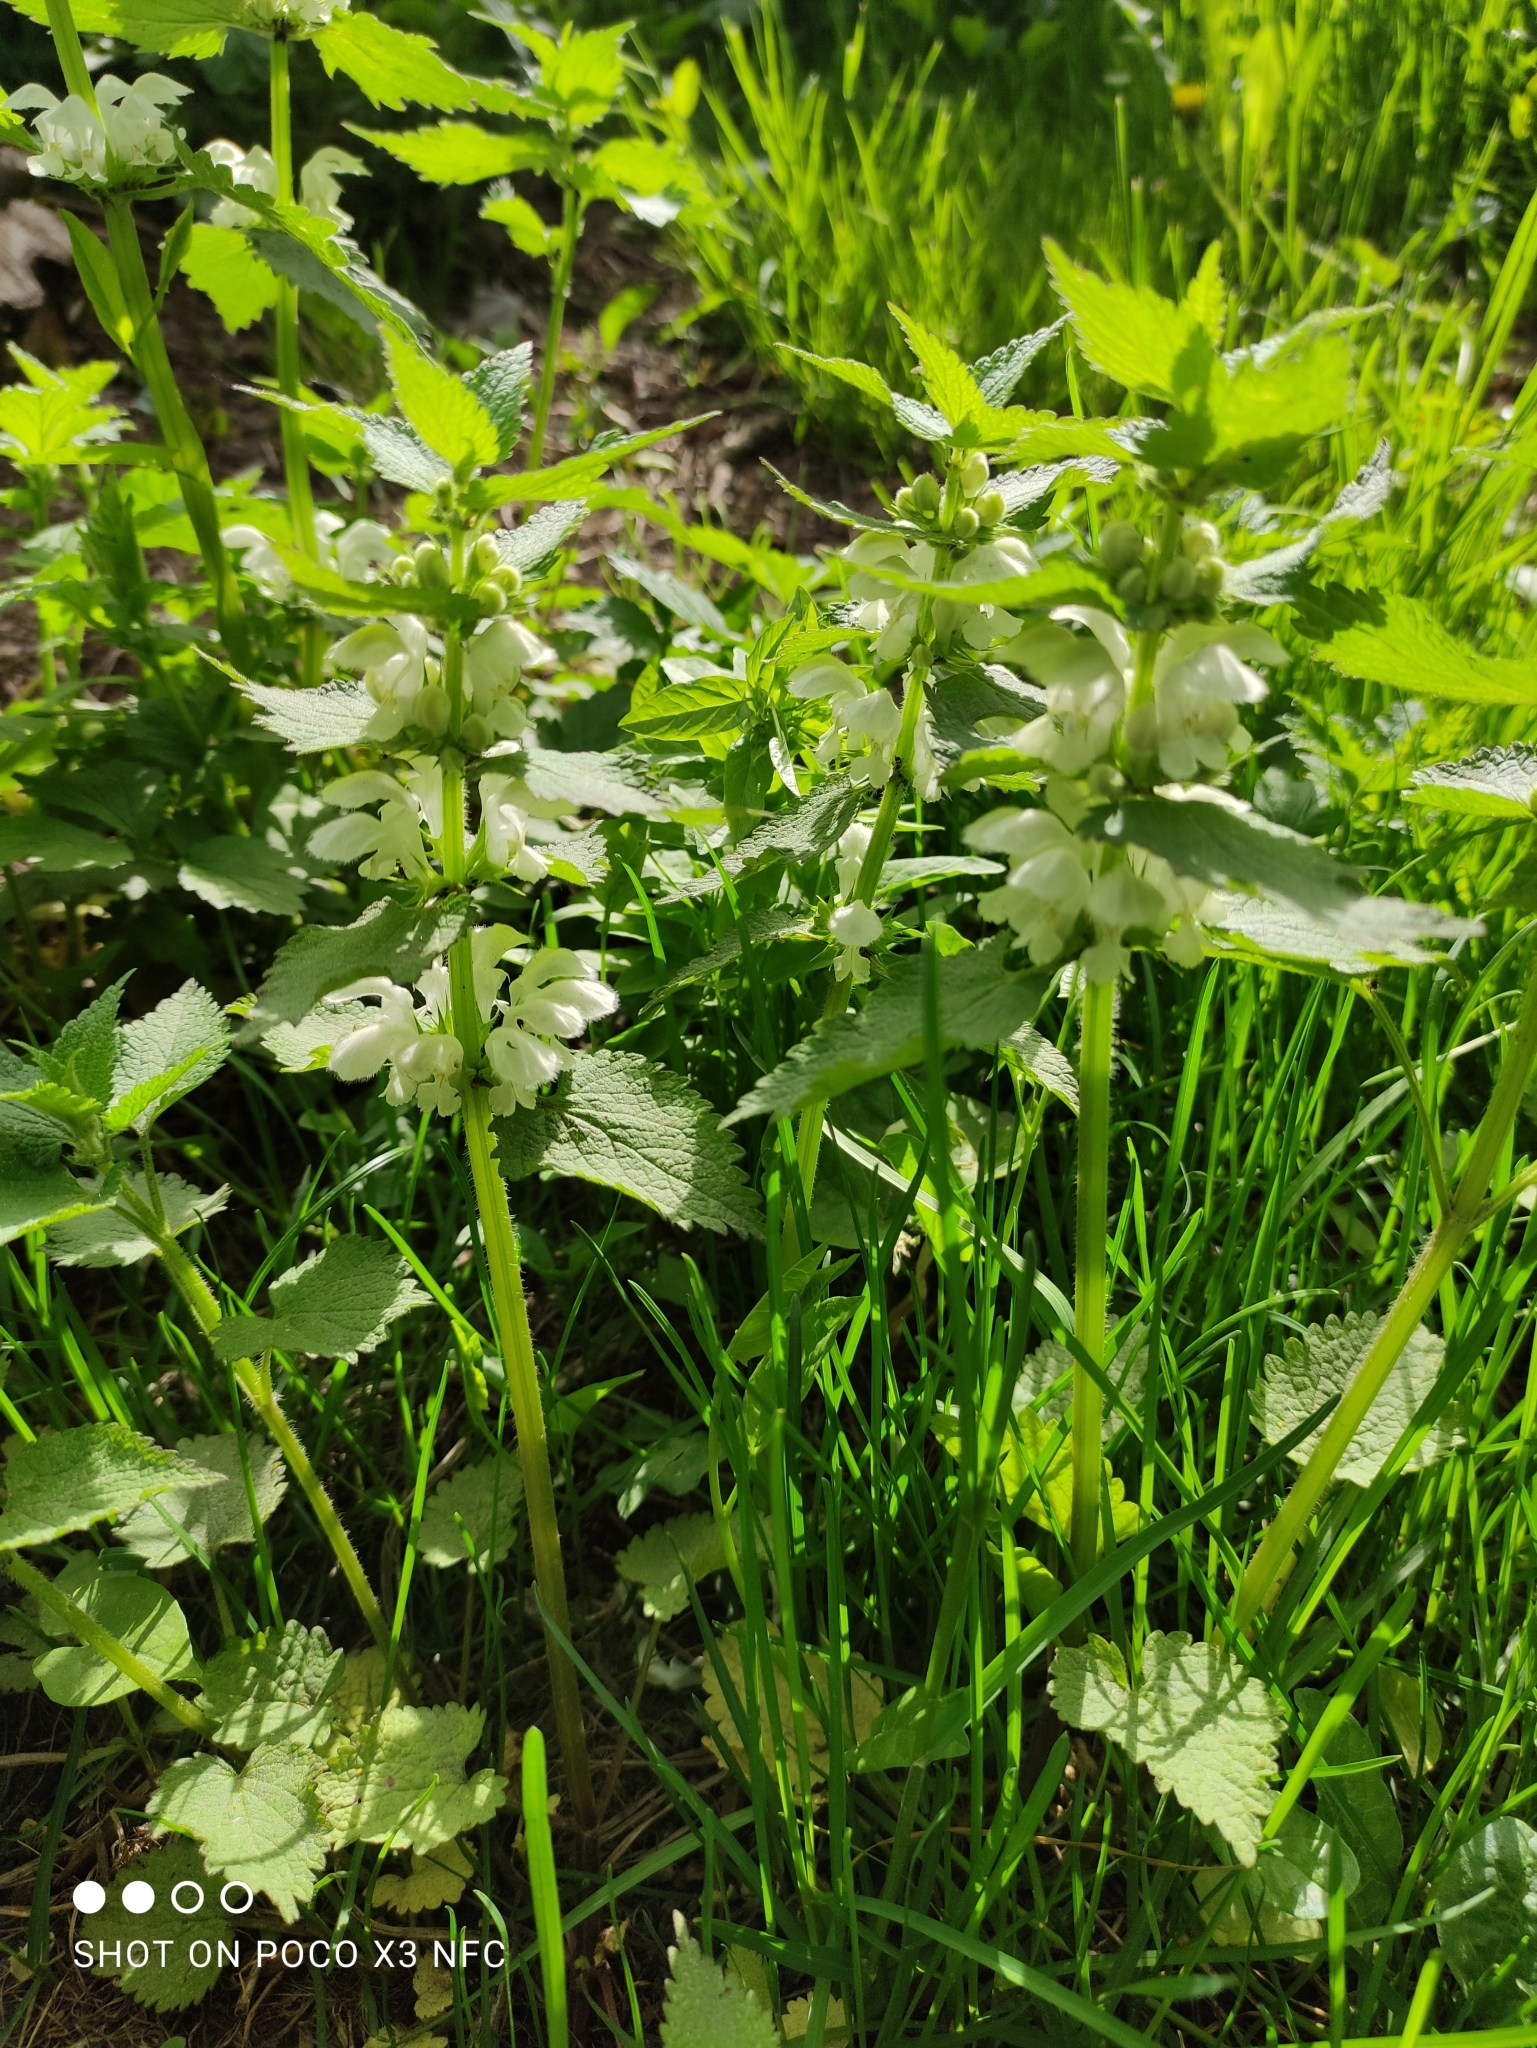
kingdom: Plantae
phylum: Tracheophyta
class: Magnoliopsida
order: Lamiales
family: Lamiaceae
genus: Lamium
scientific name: Lamium album
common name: White dead-nettle
